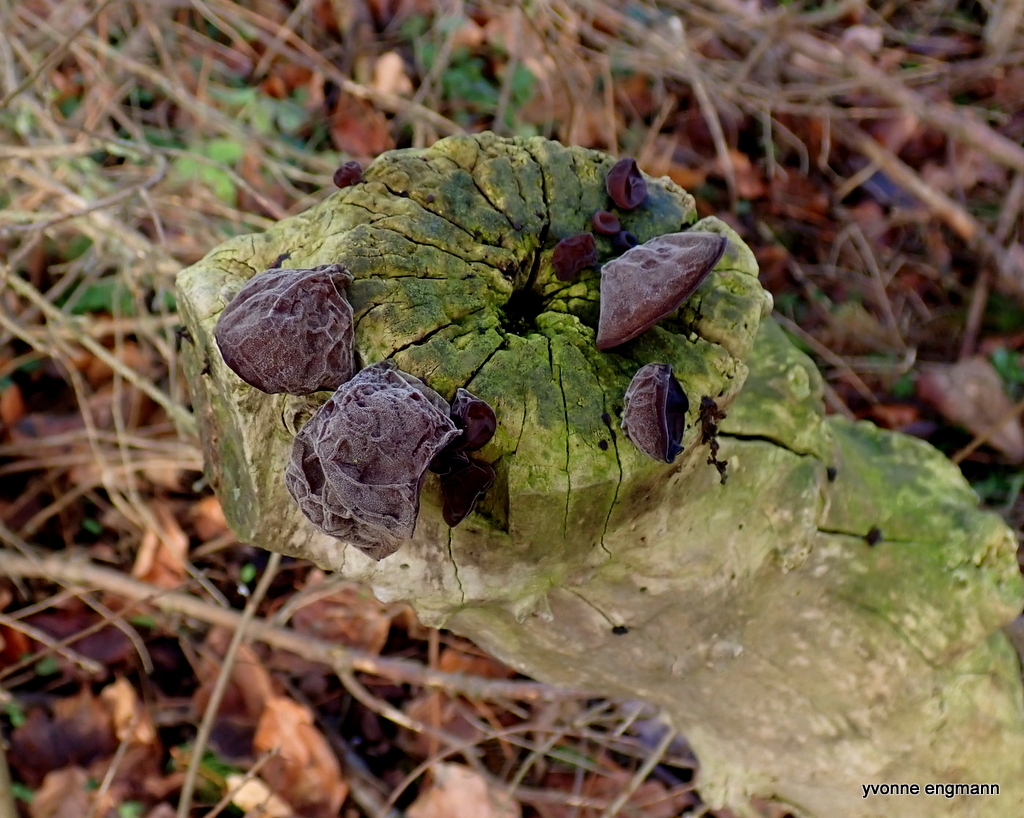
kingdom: Fungi
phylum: Basidiomycota
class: Agaricomycetes
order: Auriculariales
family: Auriculariaceae
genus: Auricularia
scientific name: Auricularia auricula-judae
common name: Jelly ear
